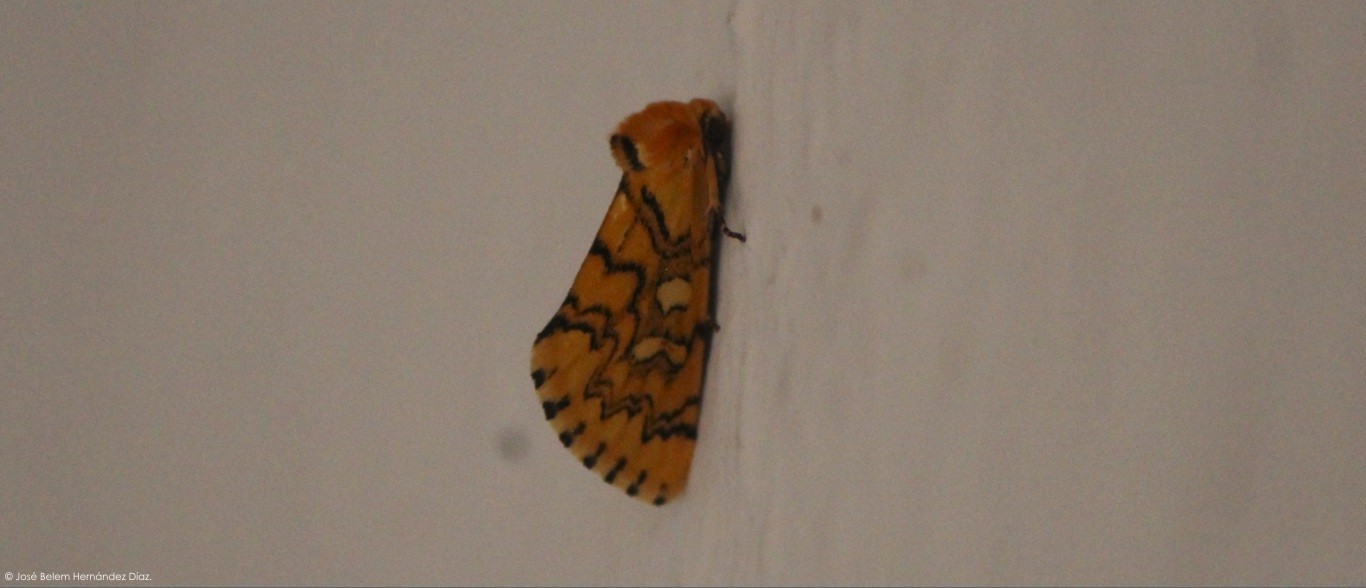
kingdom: Animalia
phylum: Arthropoda
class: Insecta
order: Lepidoptera
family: Noctuidae
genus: Chrysoecia
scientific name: Chrysoecia
